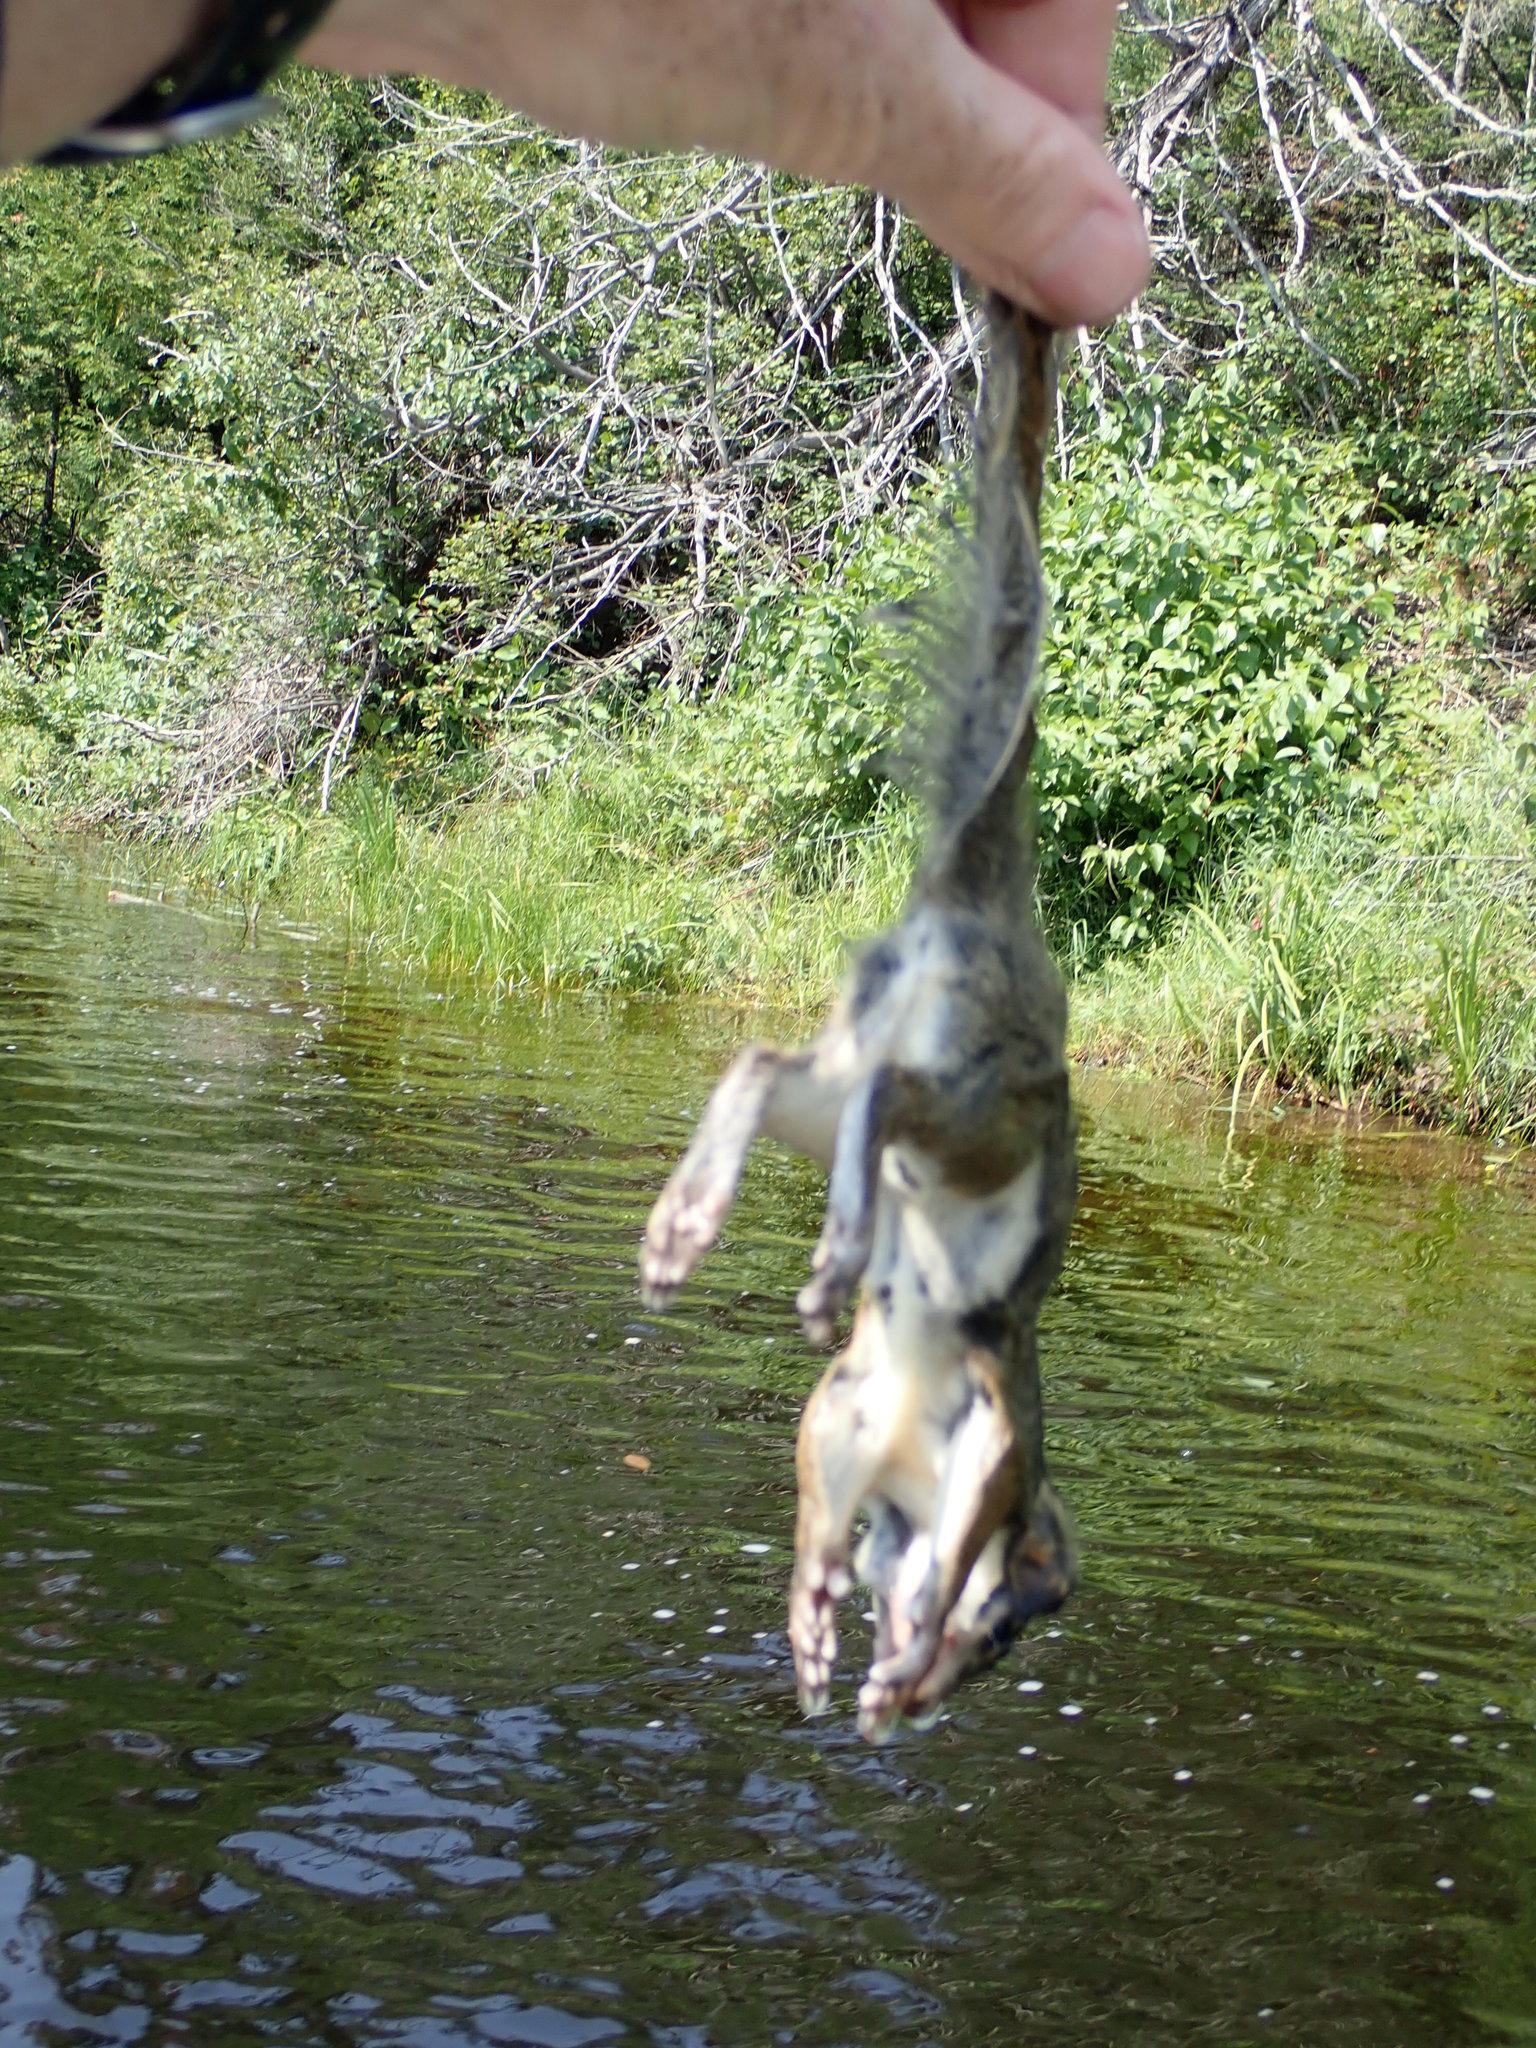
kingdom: Animalia
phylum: Chordata
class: Mammalia
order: Rodentia
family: Sciuridae
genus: Tamiasciurus
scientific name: Tamiasciurus hudsonicus
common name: Red squirrel
